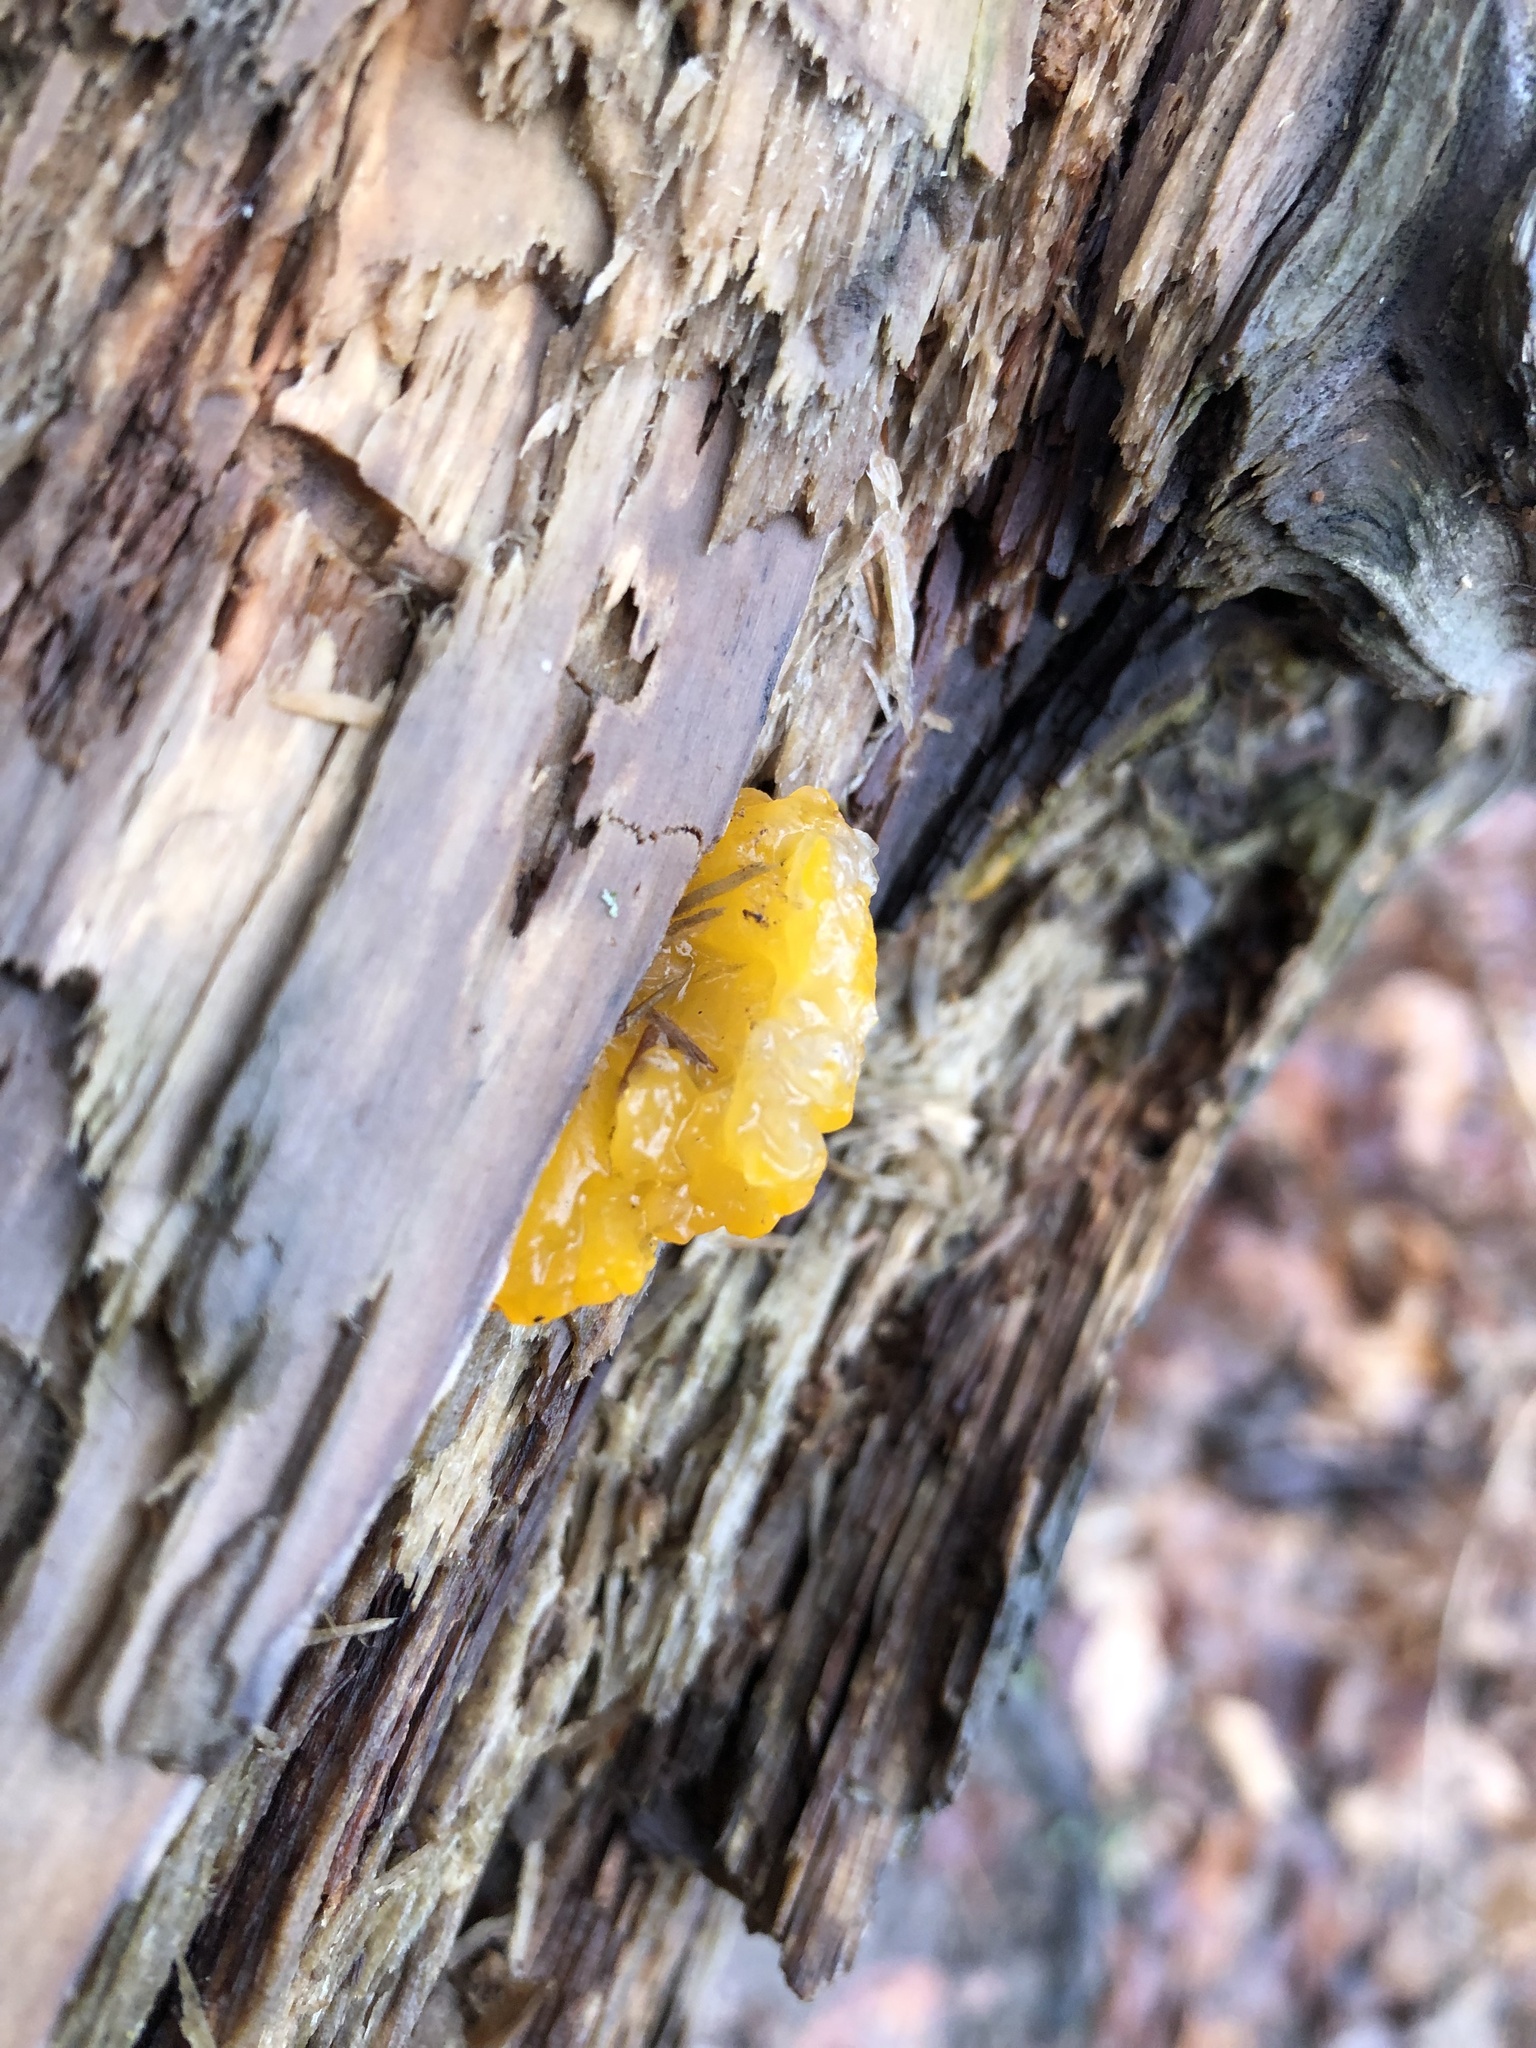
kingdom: Fungi
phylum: Basidiomycota
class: Dacrymycetes
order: Dacrymycetales
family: Dacrymycetaceae
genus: Dacrymyces
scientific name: Dacrymyces chrysospermus
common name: Orange jelly spot
